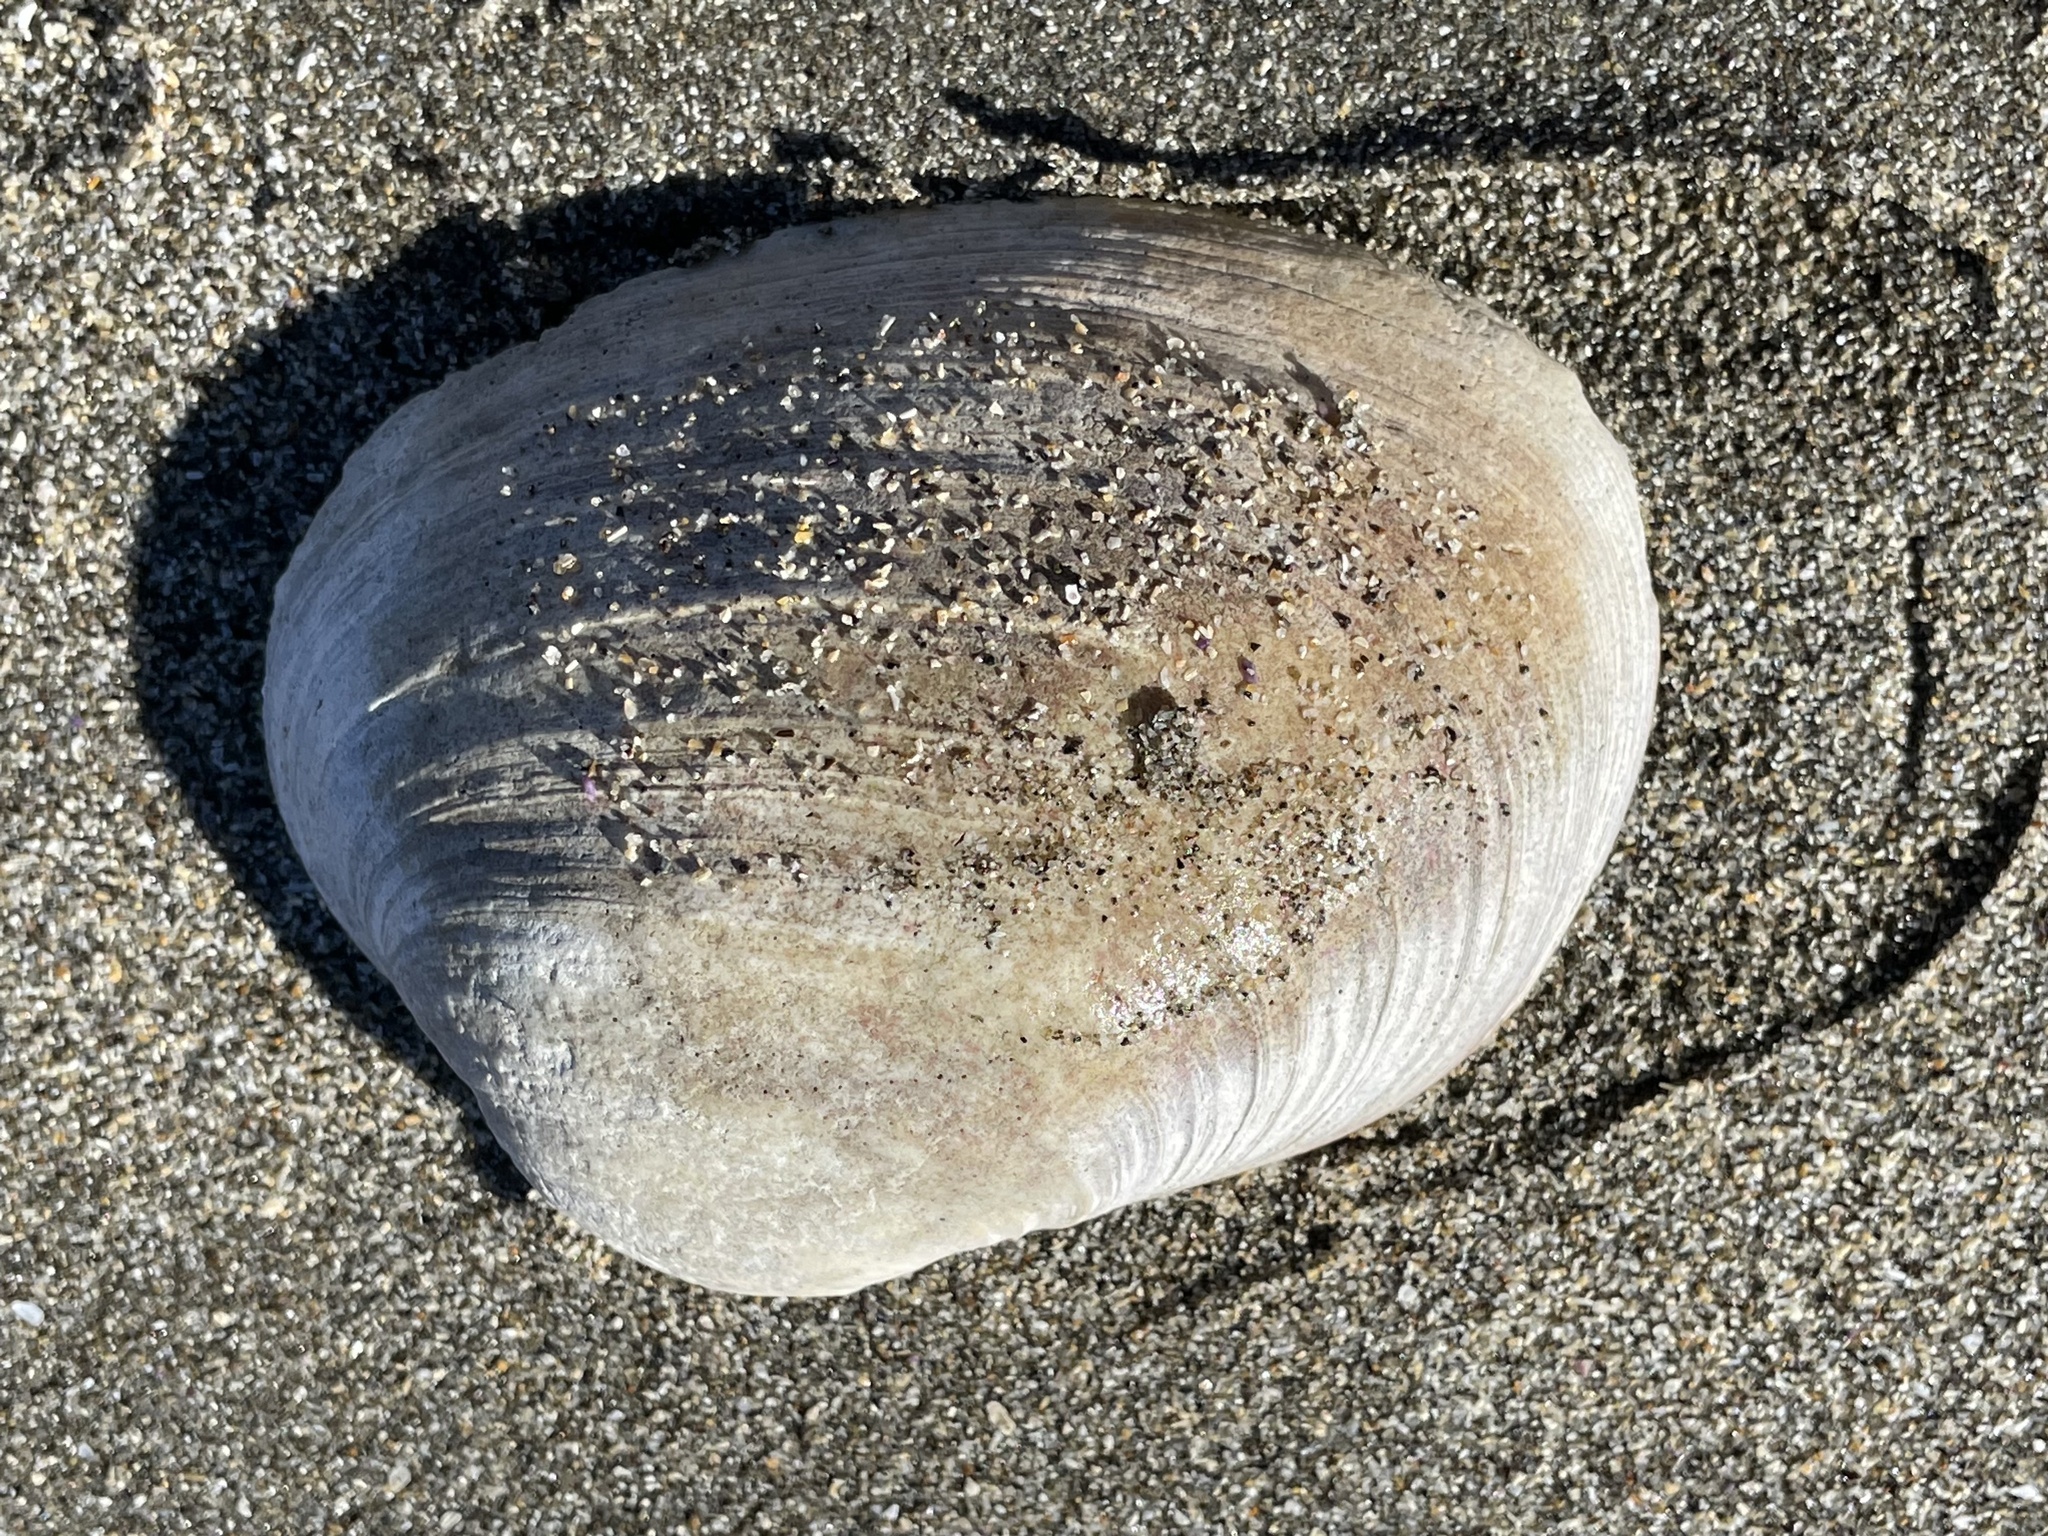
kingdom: Animalia
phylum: Mollusca
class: Bivalvia
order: Venerida
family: Veneridae
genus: Saxidomus
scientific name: Saxidomus nuttalli
